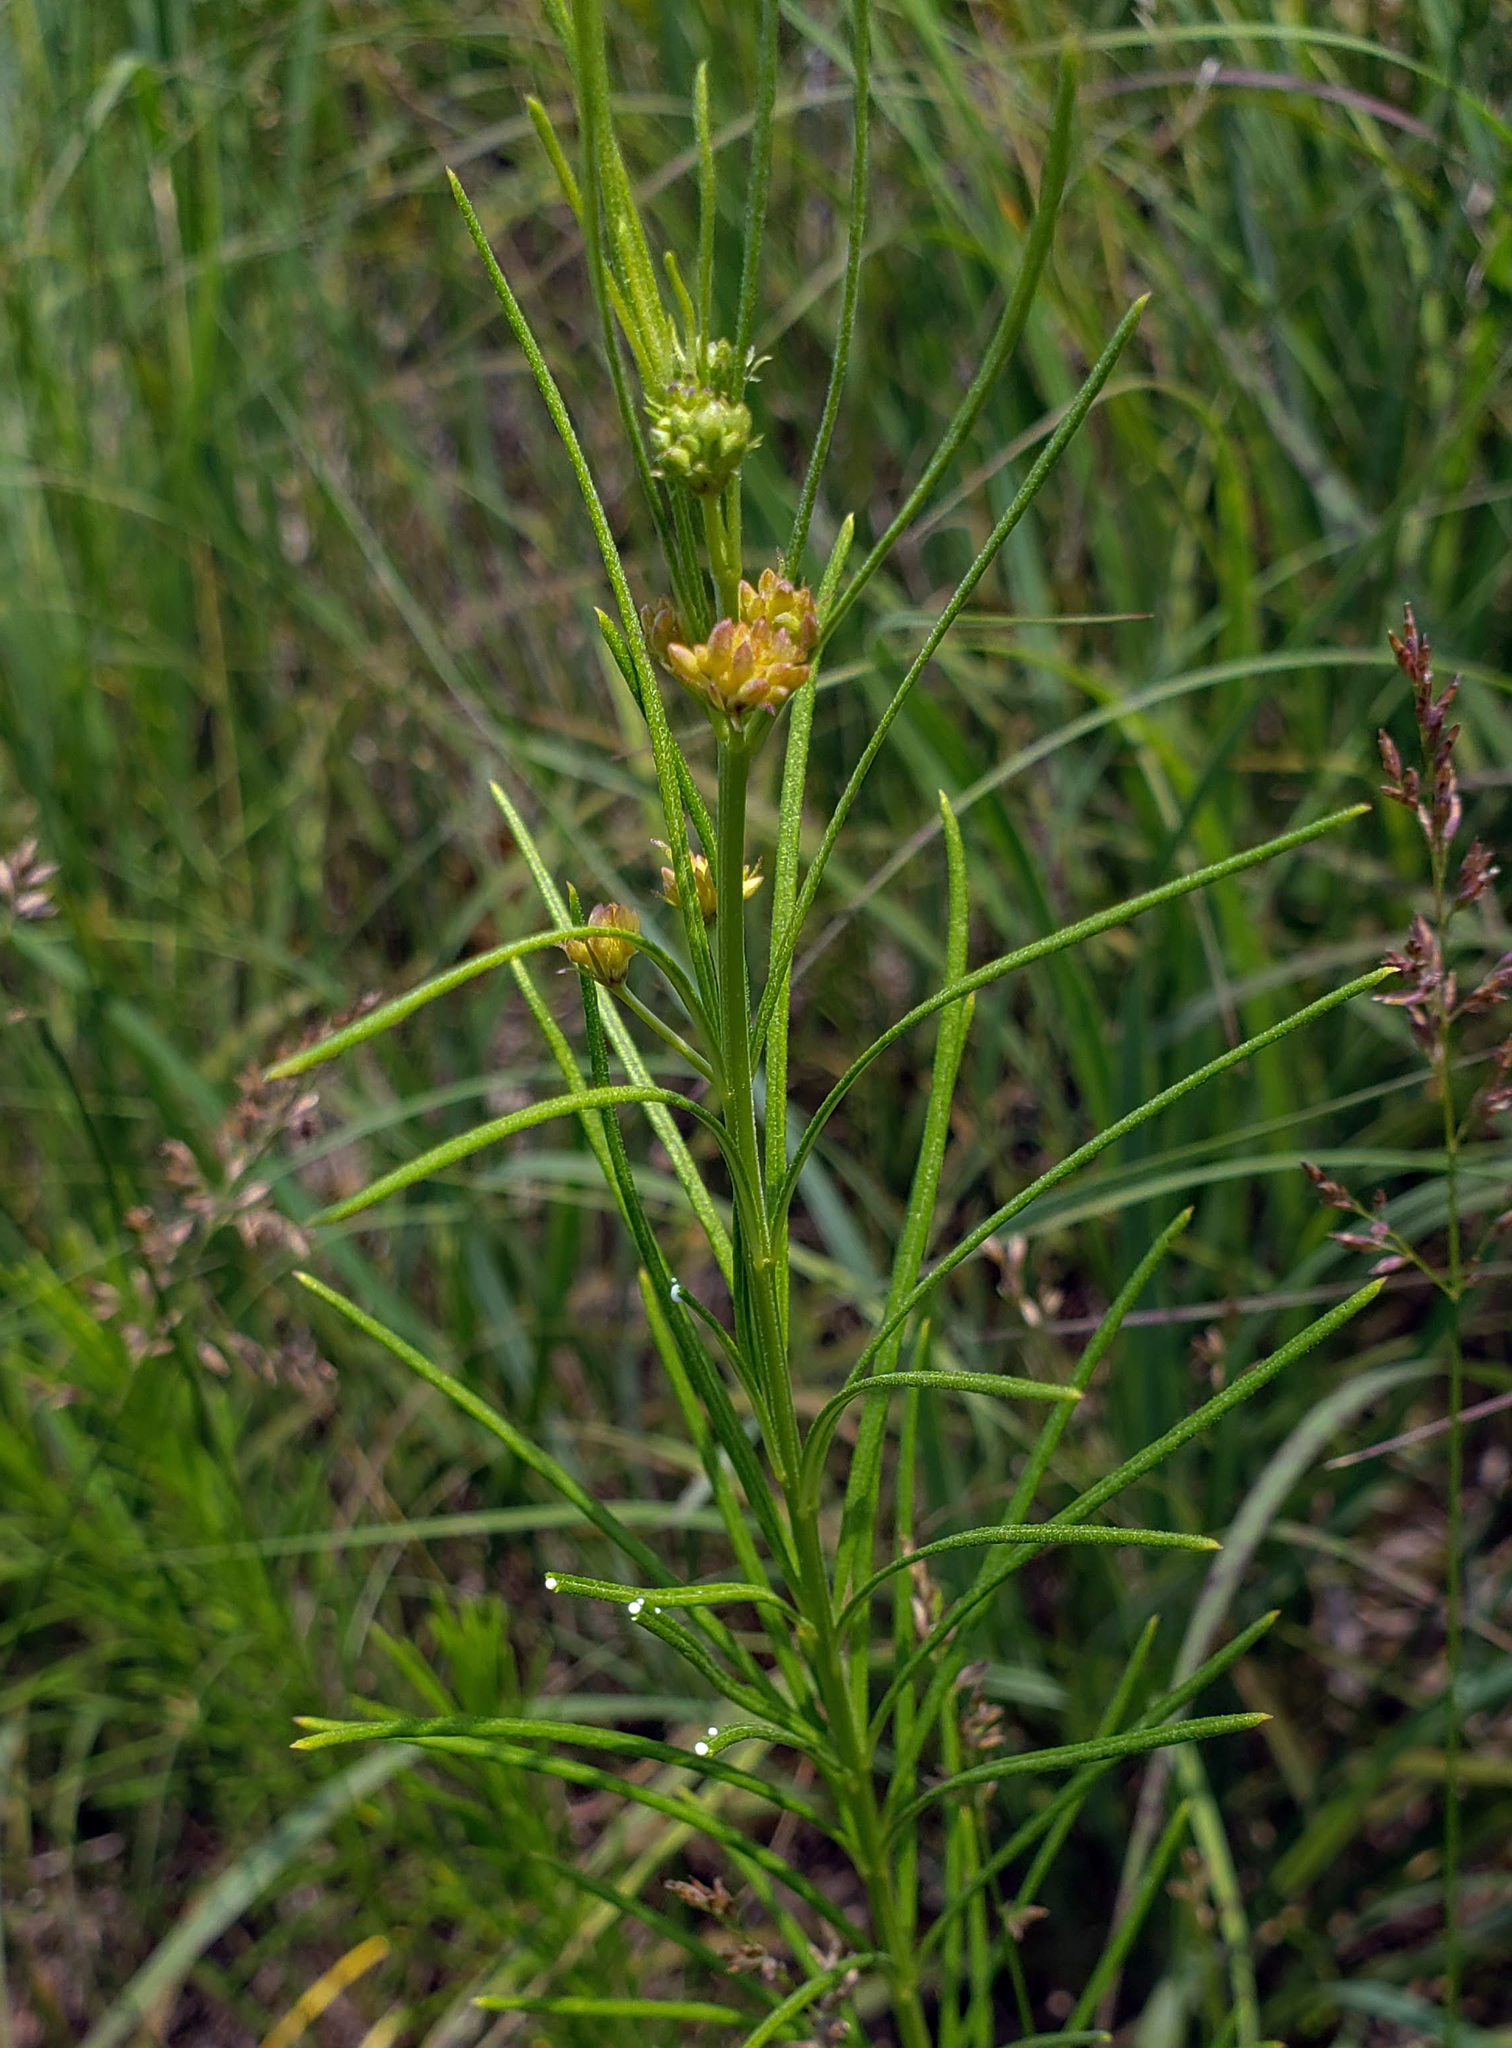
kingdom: Plantae
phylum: Tracheophyta
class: Magnoliopsida
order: Gentianales
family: Apocynaceae
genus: Asclepias
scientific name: Asclepias verticillata
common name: Eastern whorled milkweed
